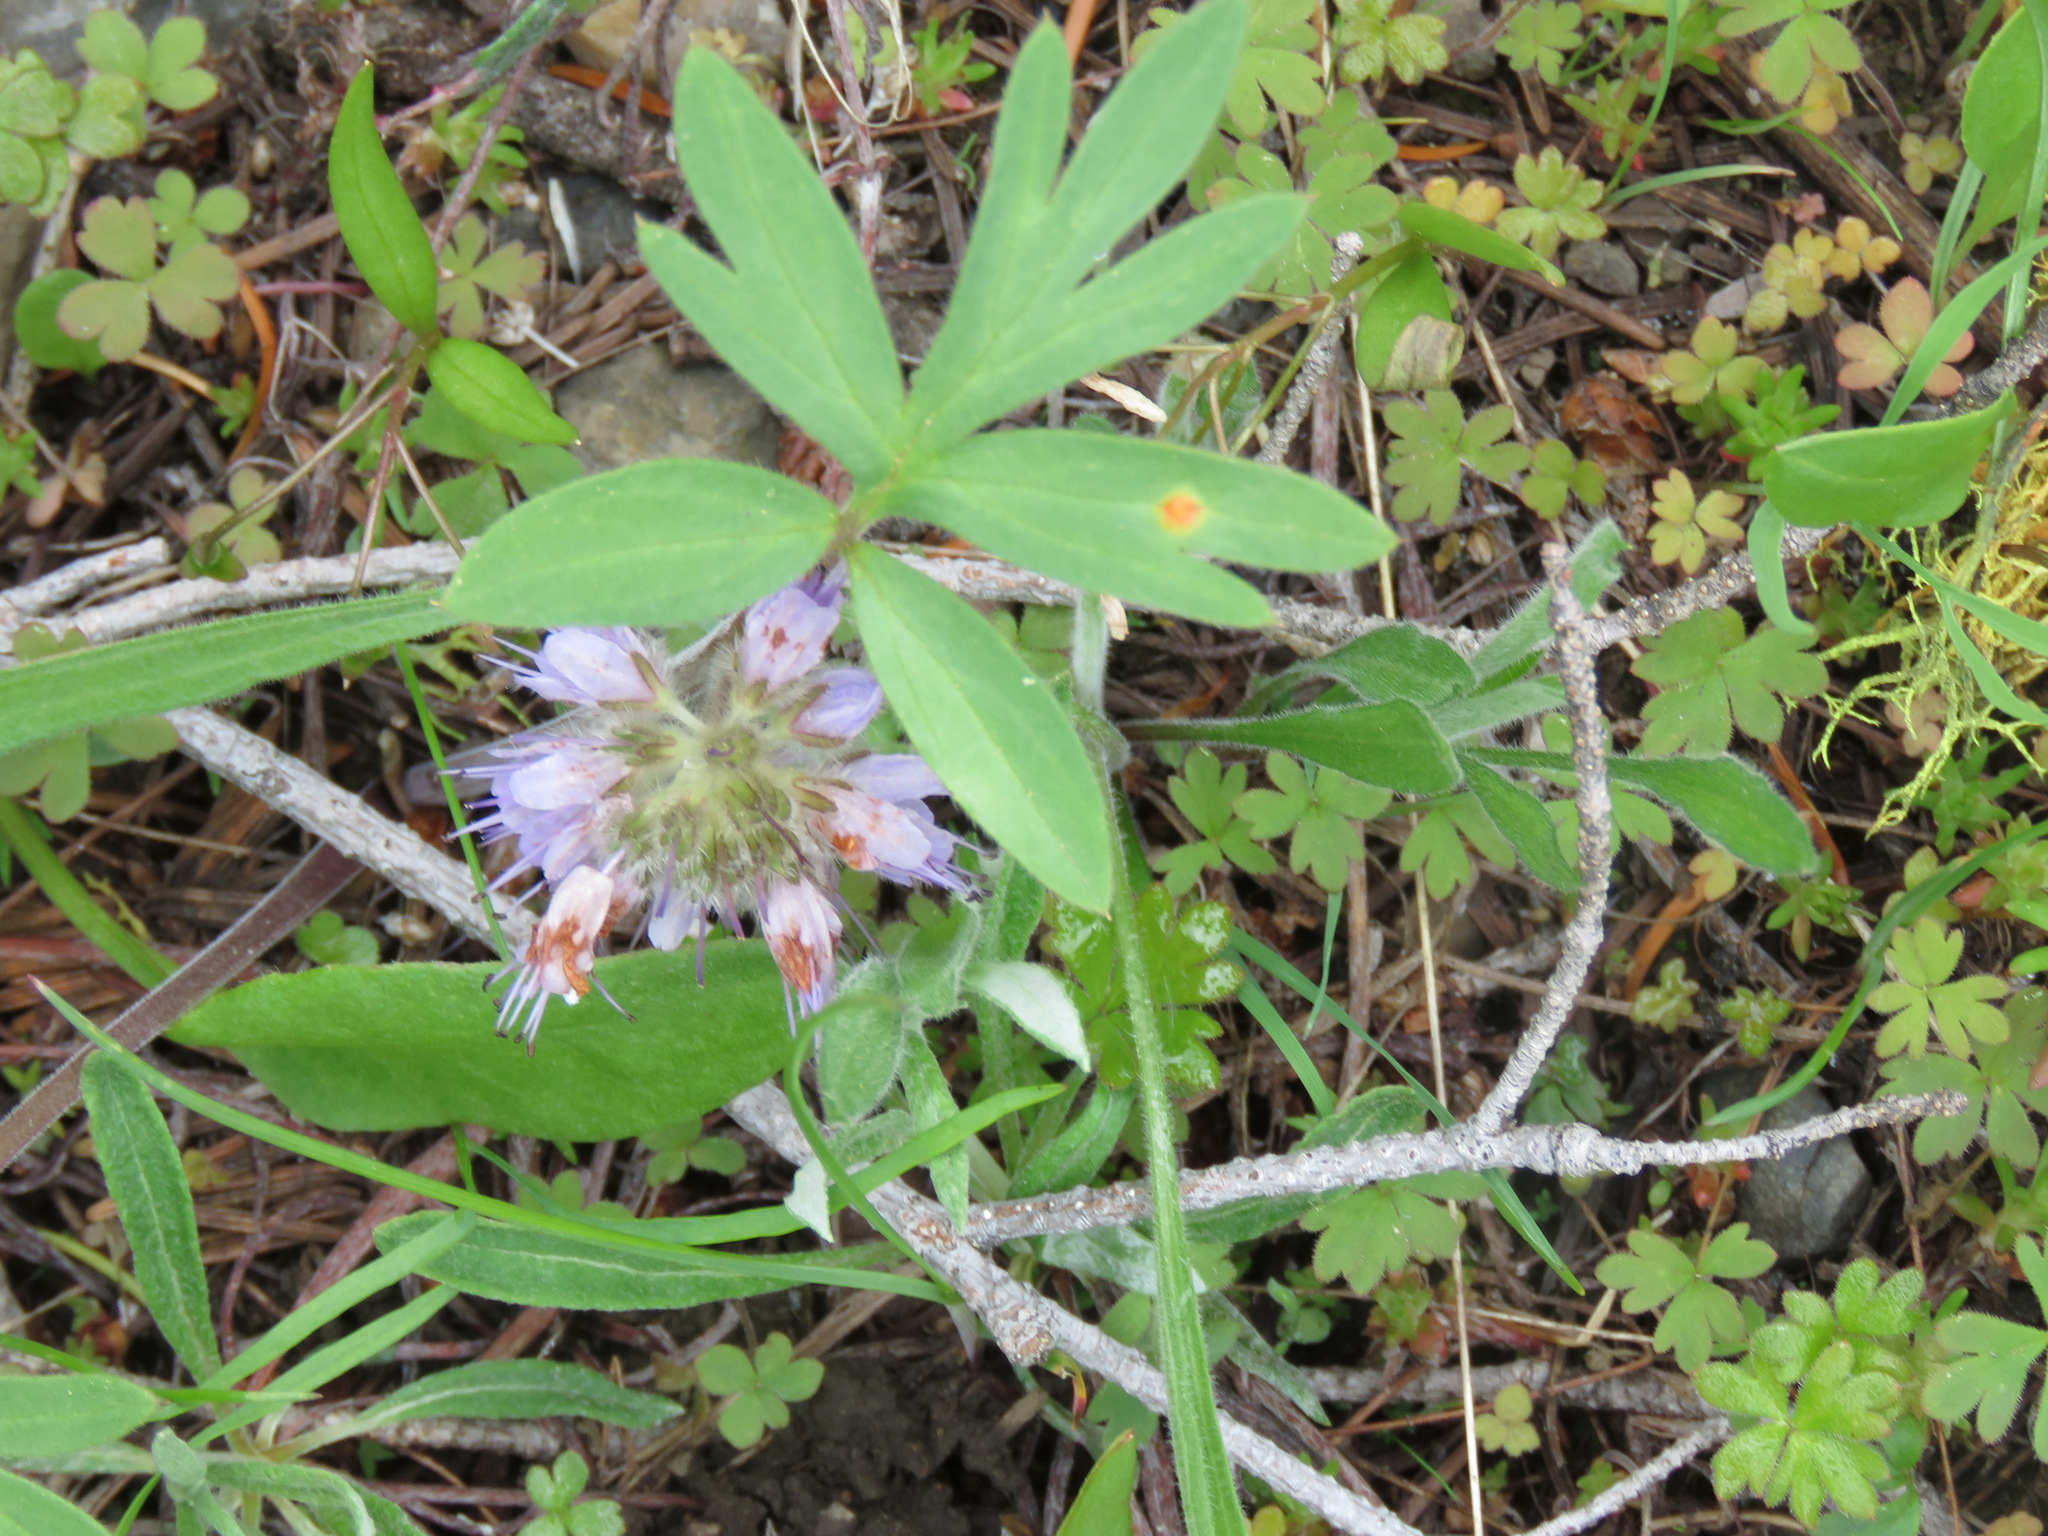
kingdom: Plantae
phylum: Tracheophyta
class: Magnoliopsida
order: Boraginales
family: Hydrophyllaceae
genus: Hydrophyllum
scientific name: Hydrophyllum capitatum
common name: Woollen-breeches
